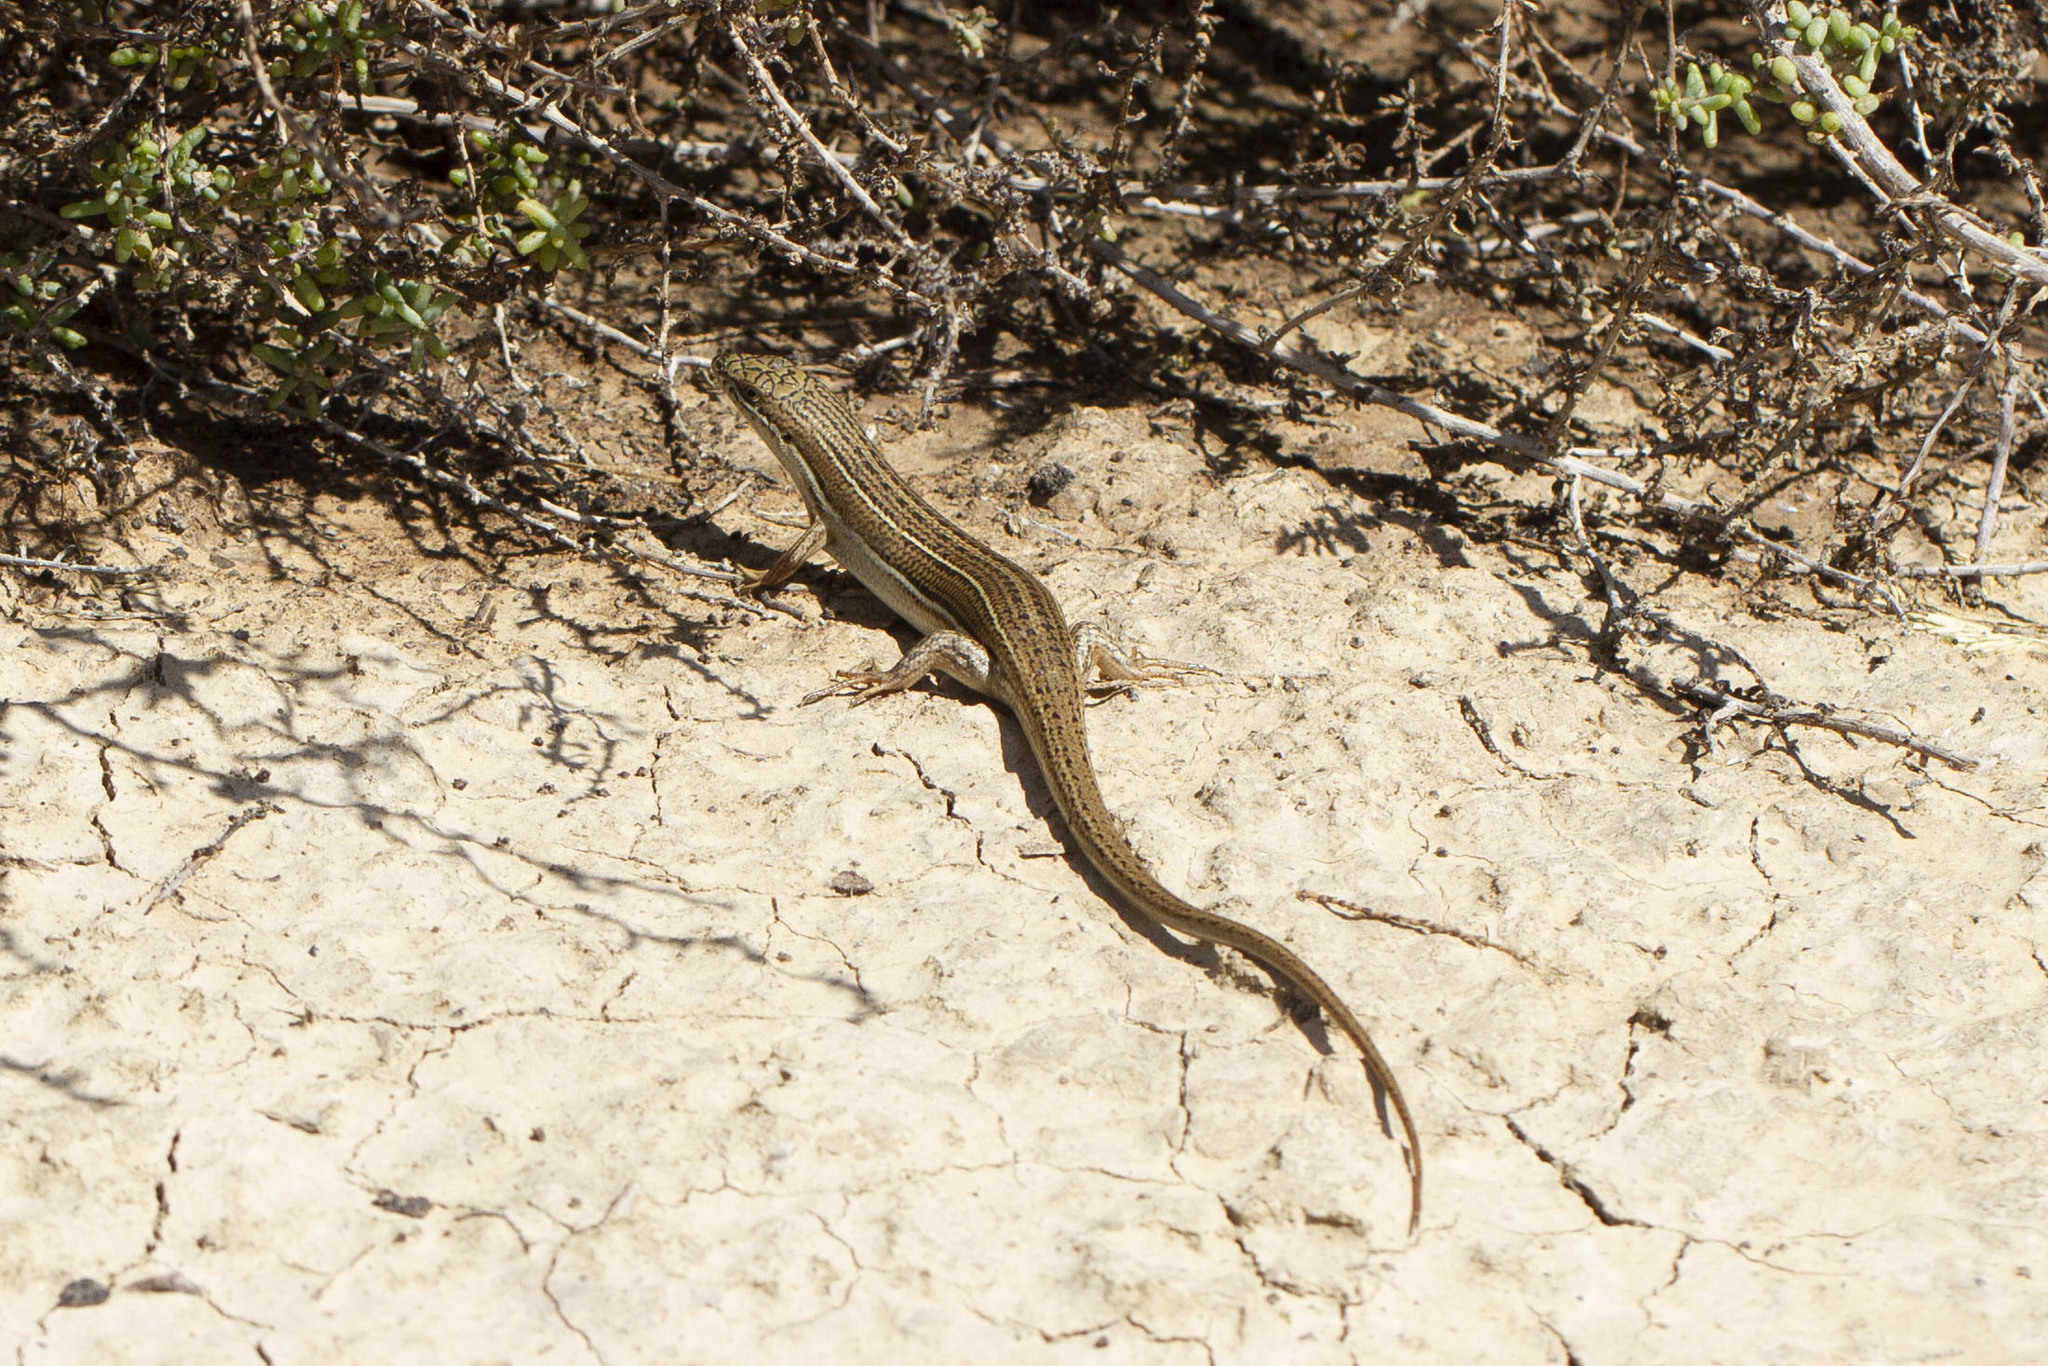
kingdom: Animalia
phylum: Chordata
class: Squamata
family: Scincidae
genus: Heremites
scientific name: Heremites vittatus
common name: Bridled mabuya
